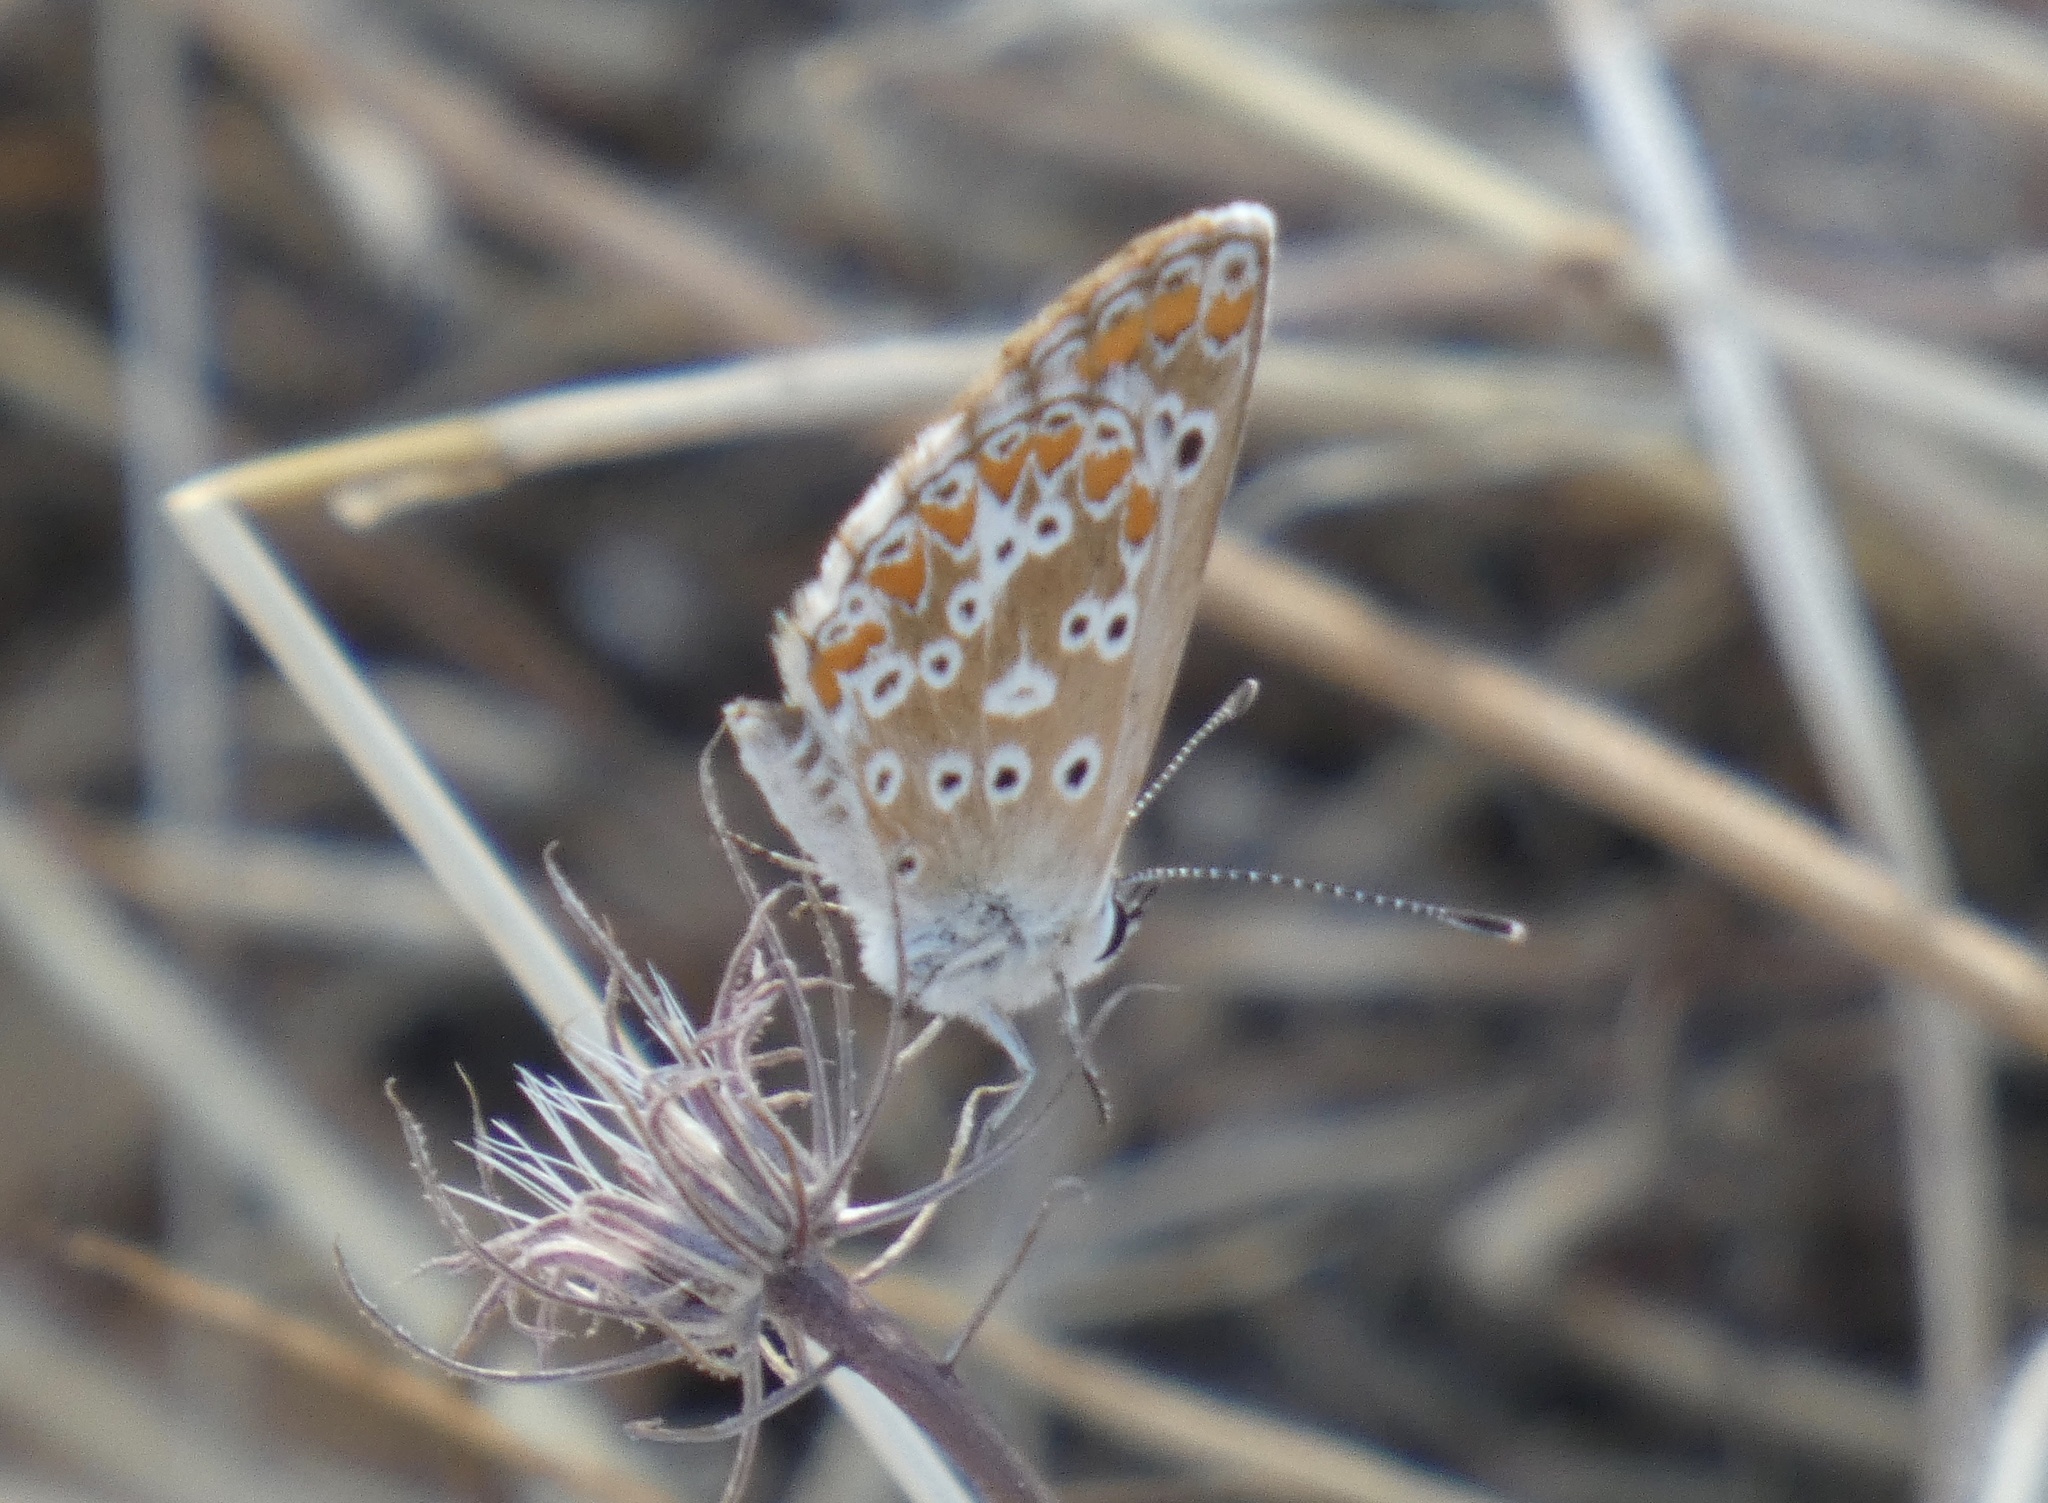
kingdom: Animalia
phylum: Arthropoda
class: Insecta
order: Lepidoptera
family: Lycaenidae
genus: Aricia
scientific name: Aricia cramera
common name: Eschscholtz´s brown  argus
